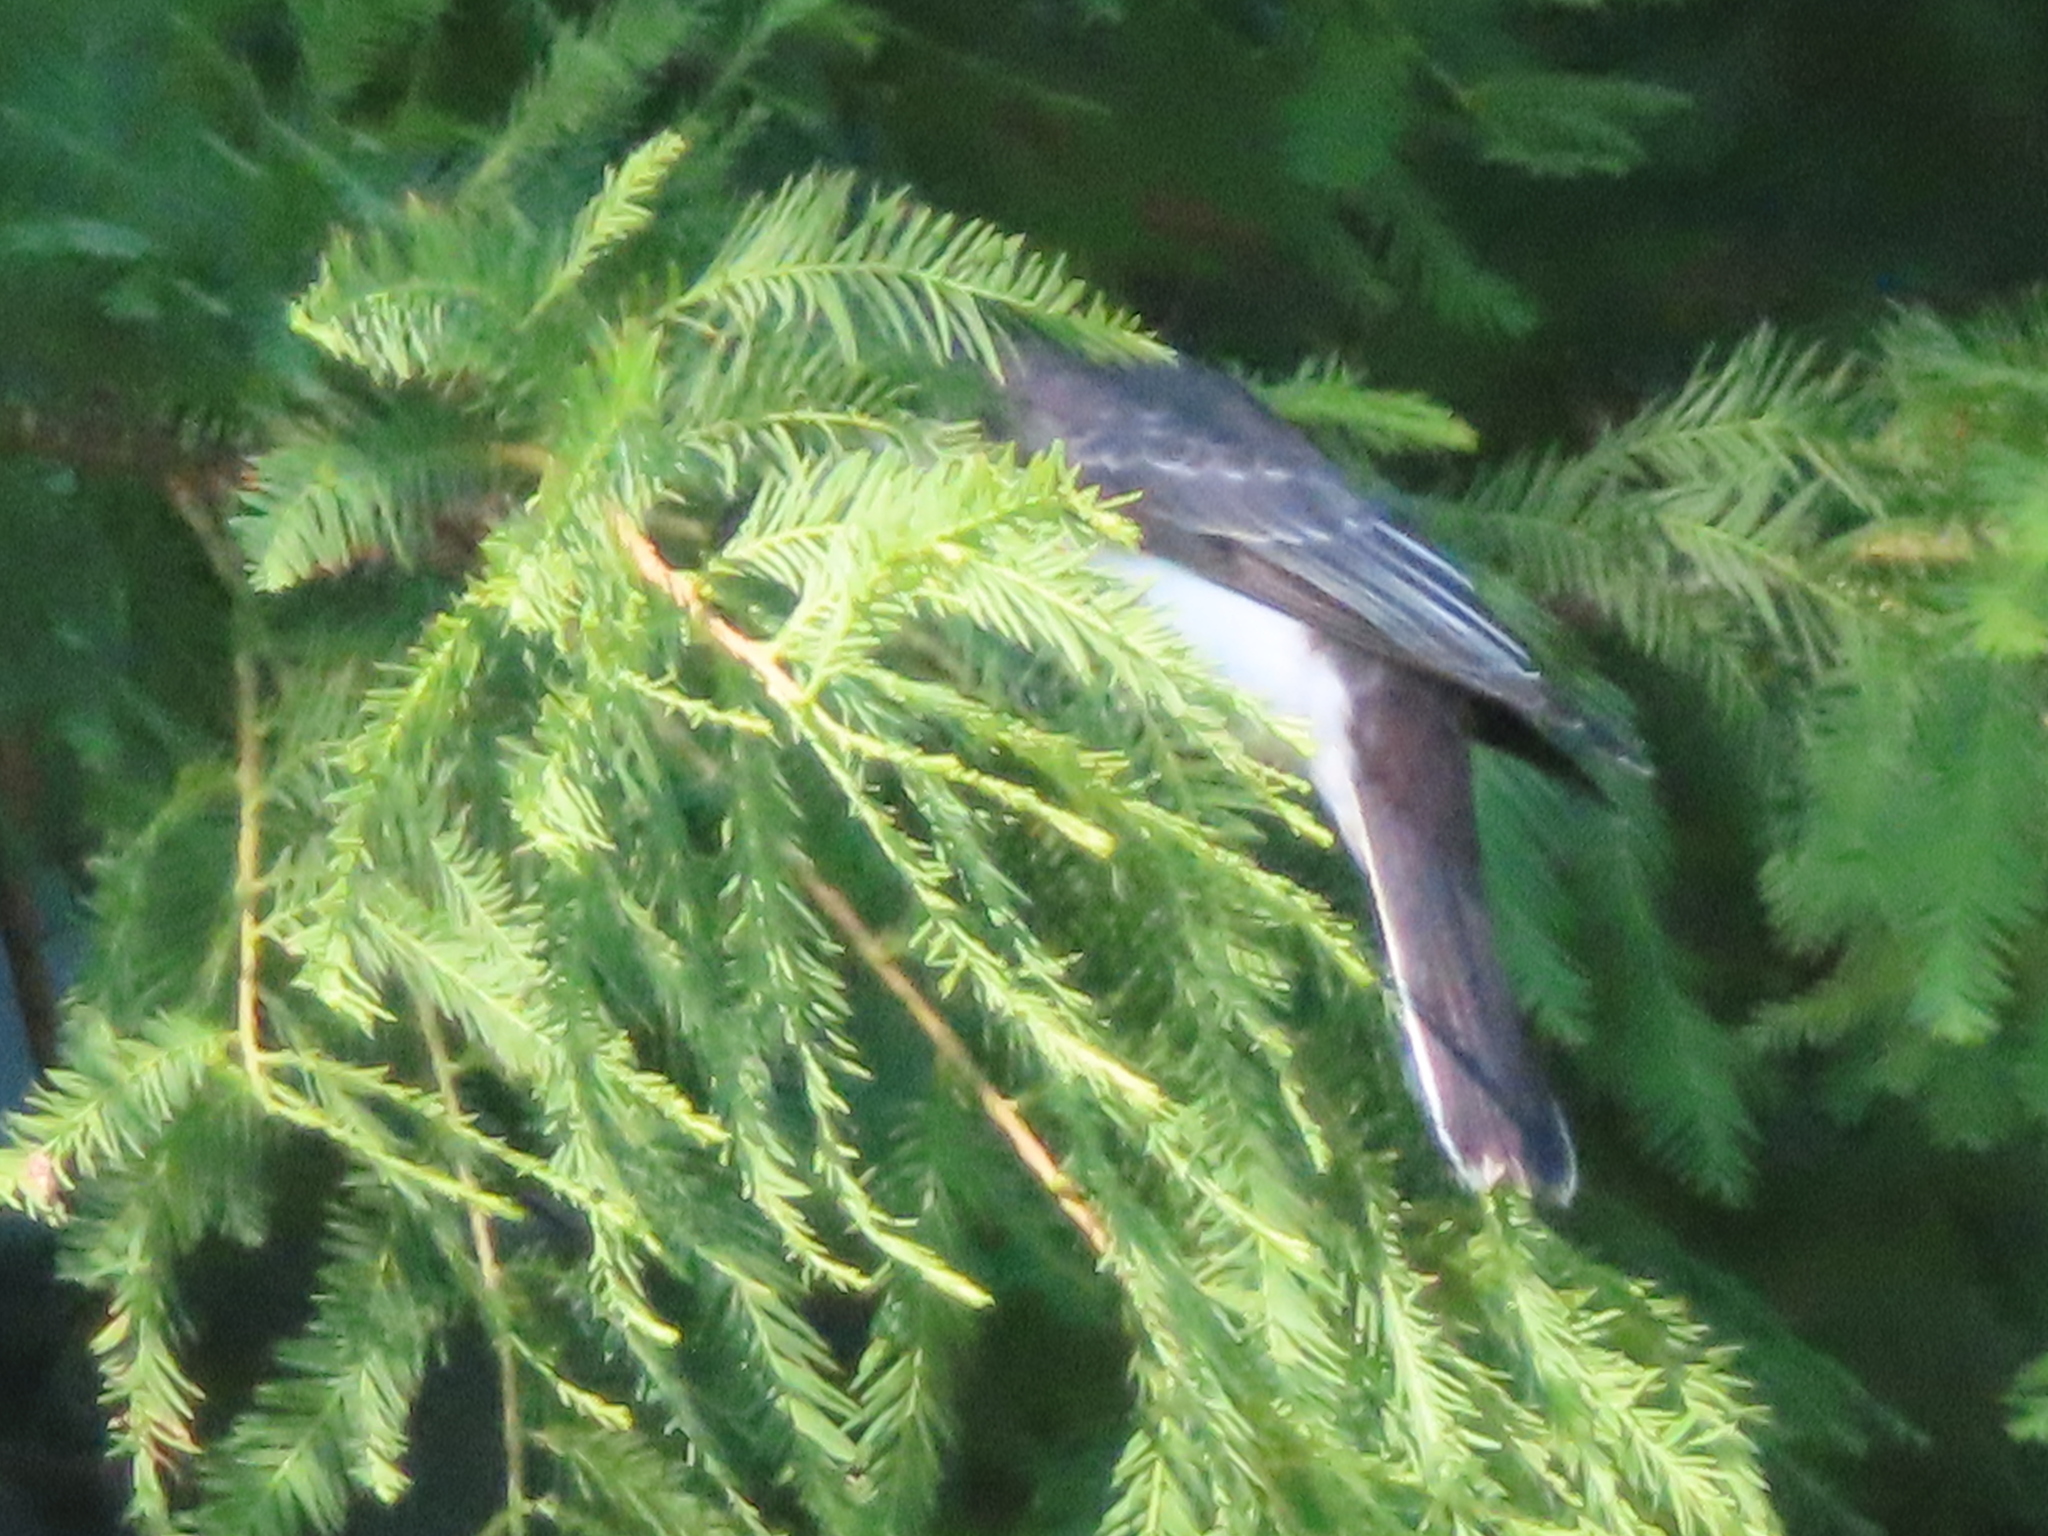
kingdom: Animalia
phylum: Chordata
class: Aves
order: Passeriformes
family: Tyrannidae
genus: Tyrannus
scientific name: Tyrannus tyrannus
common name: Eastern kingbird
